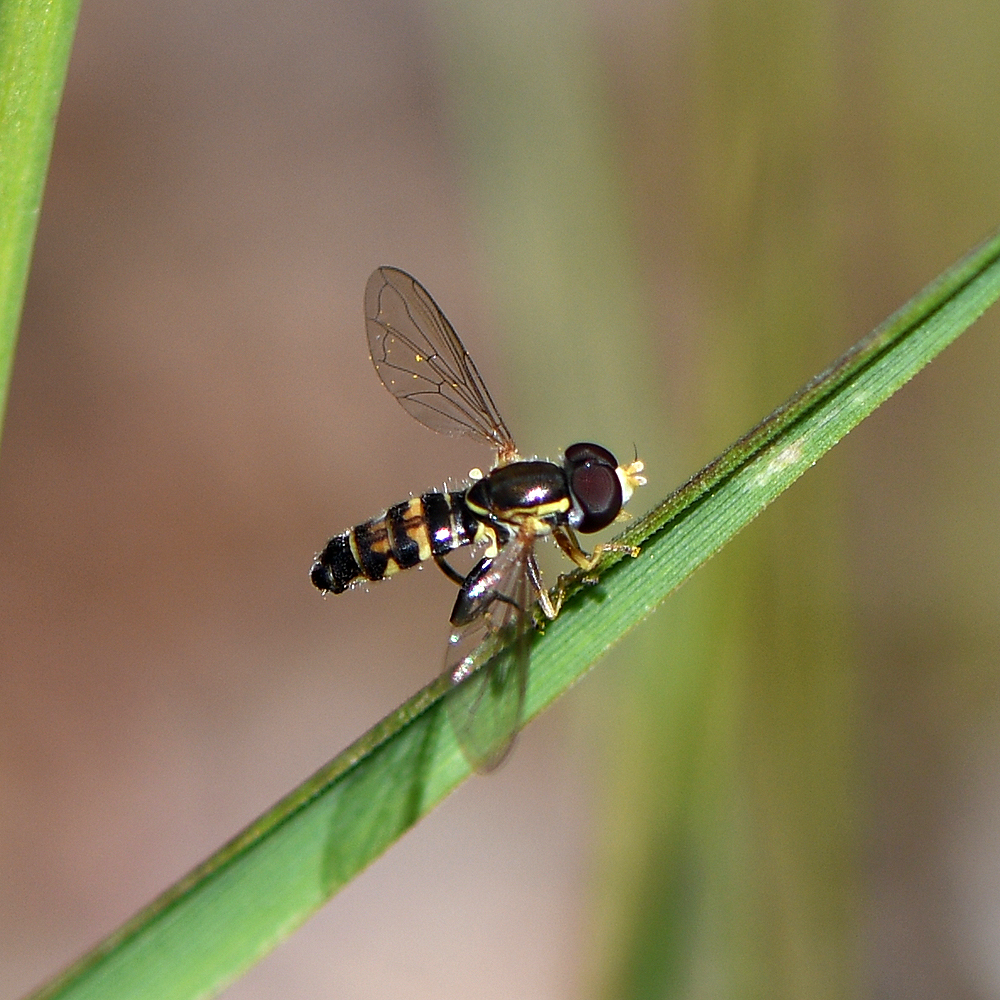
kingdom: Animalia
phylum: Arthropoda
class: Insecta
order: Diptera
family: Syrphidae
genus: Toxomerus
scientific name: Toxomerus occidentalis
